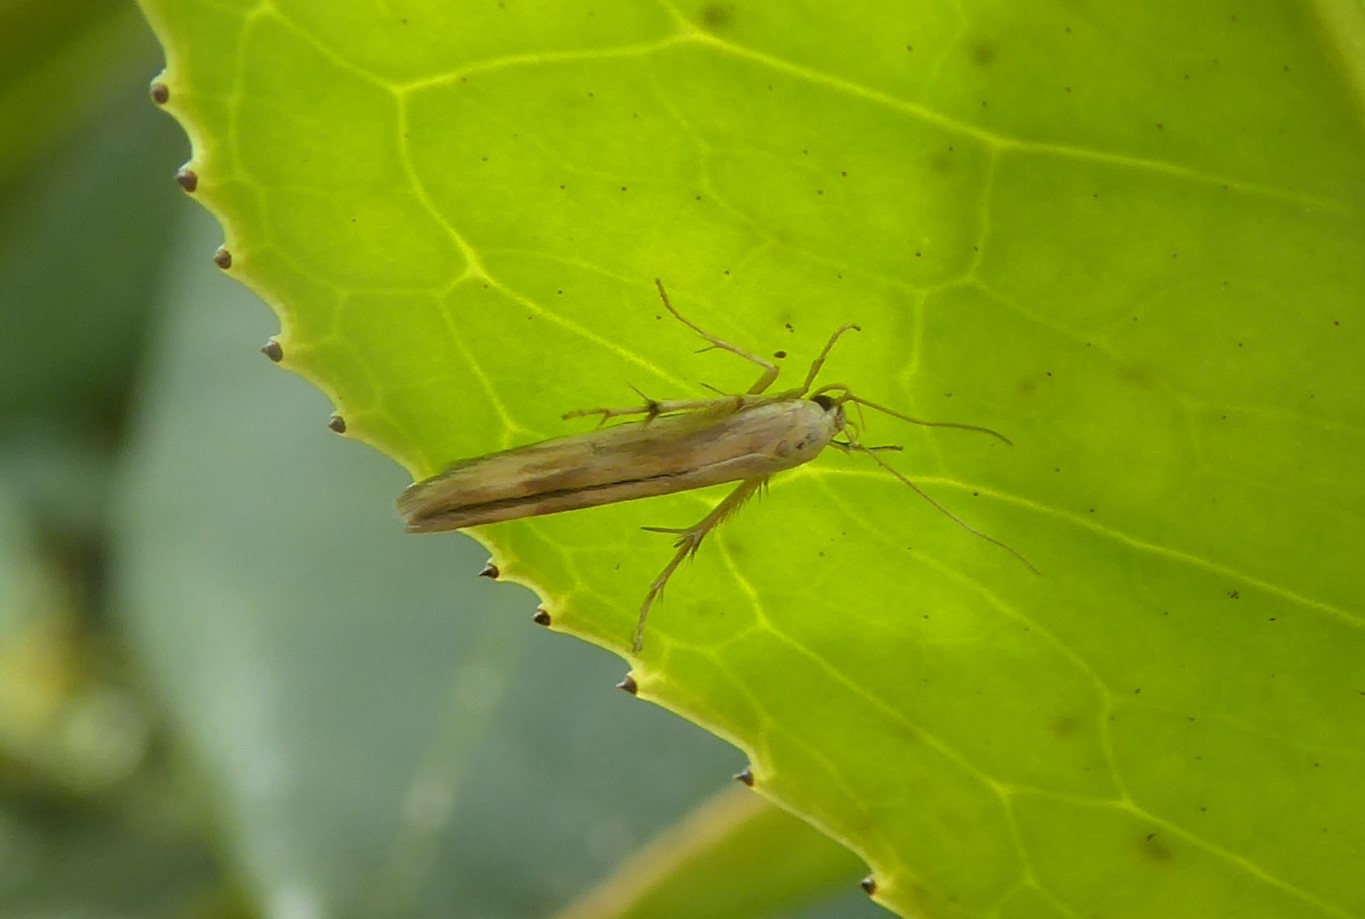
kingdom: Animalia
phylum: Arthropoda
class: Insecta
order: Lepidoptera
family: Stathmopodidae
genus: Stathmopoda
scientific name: Stathmopoda horticola
